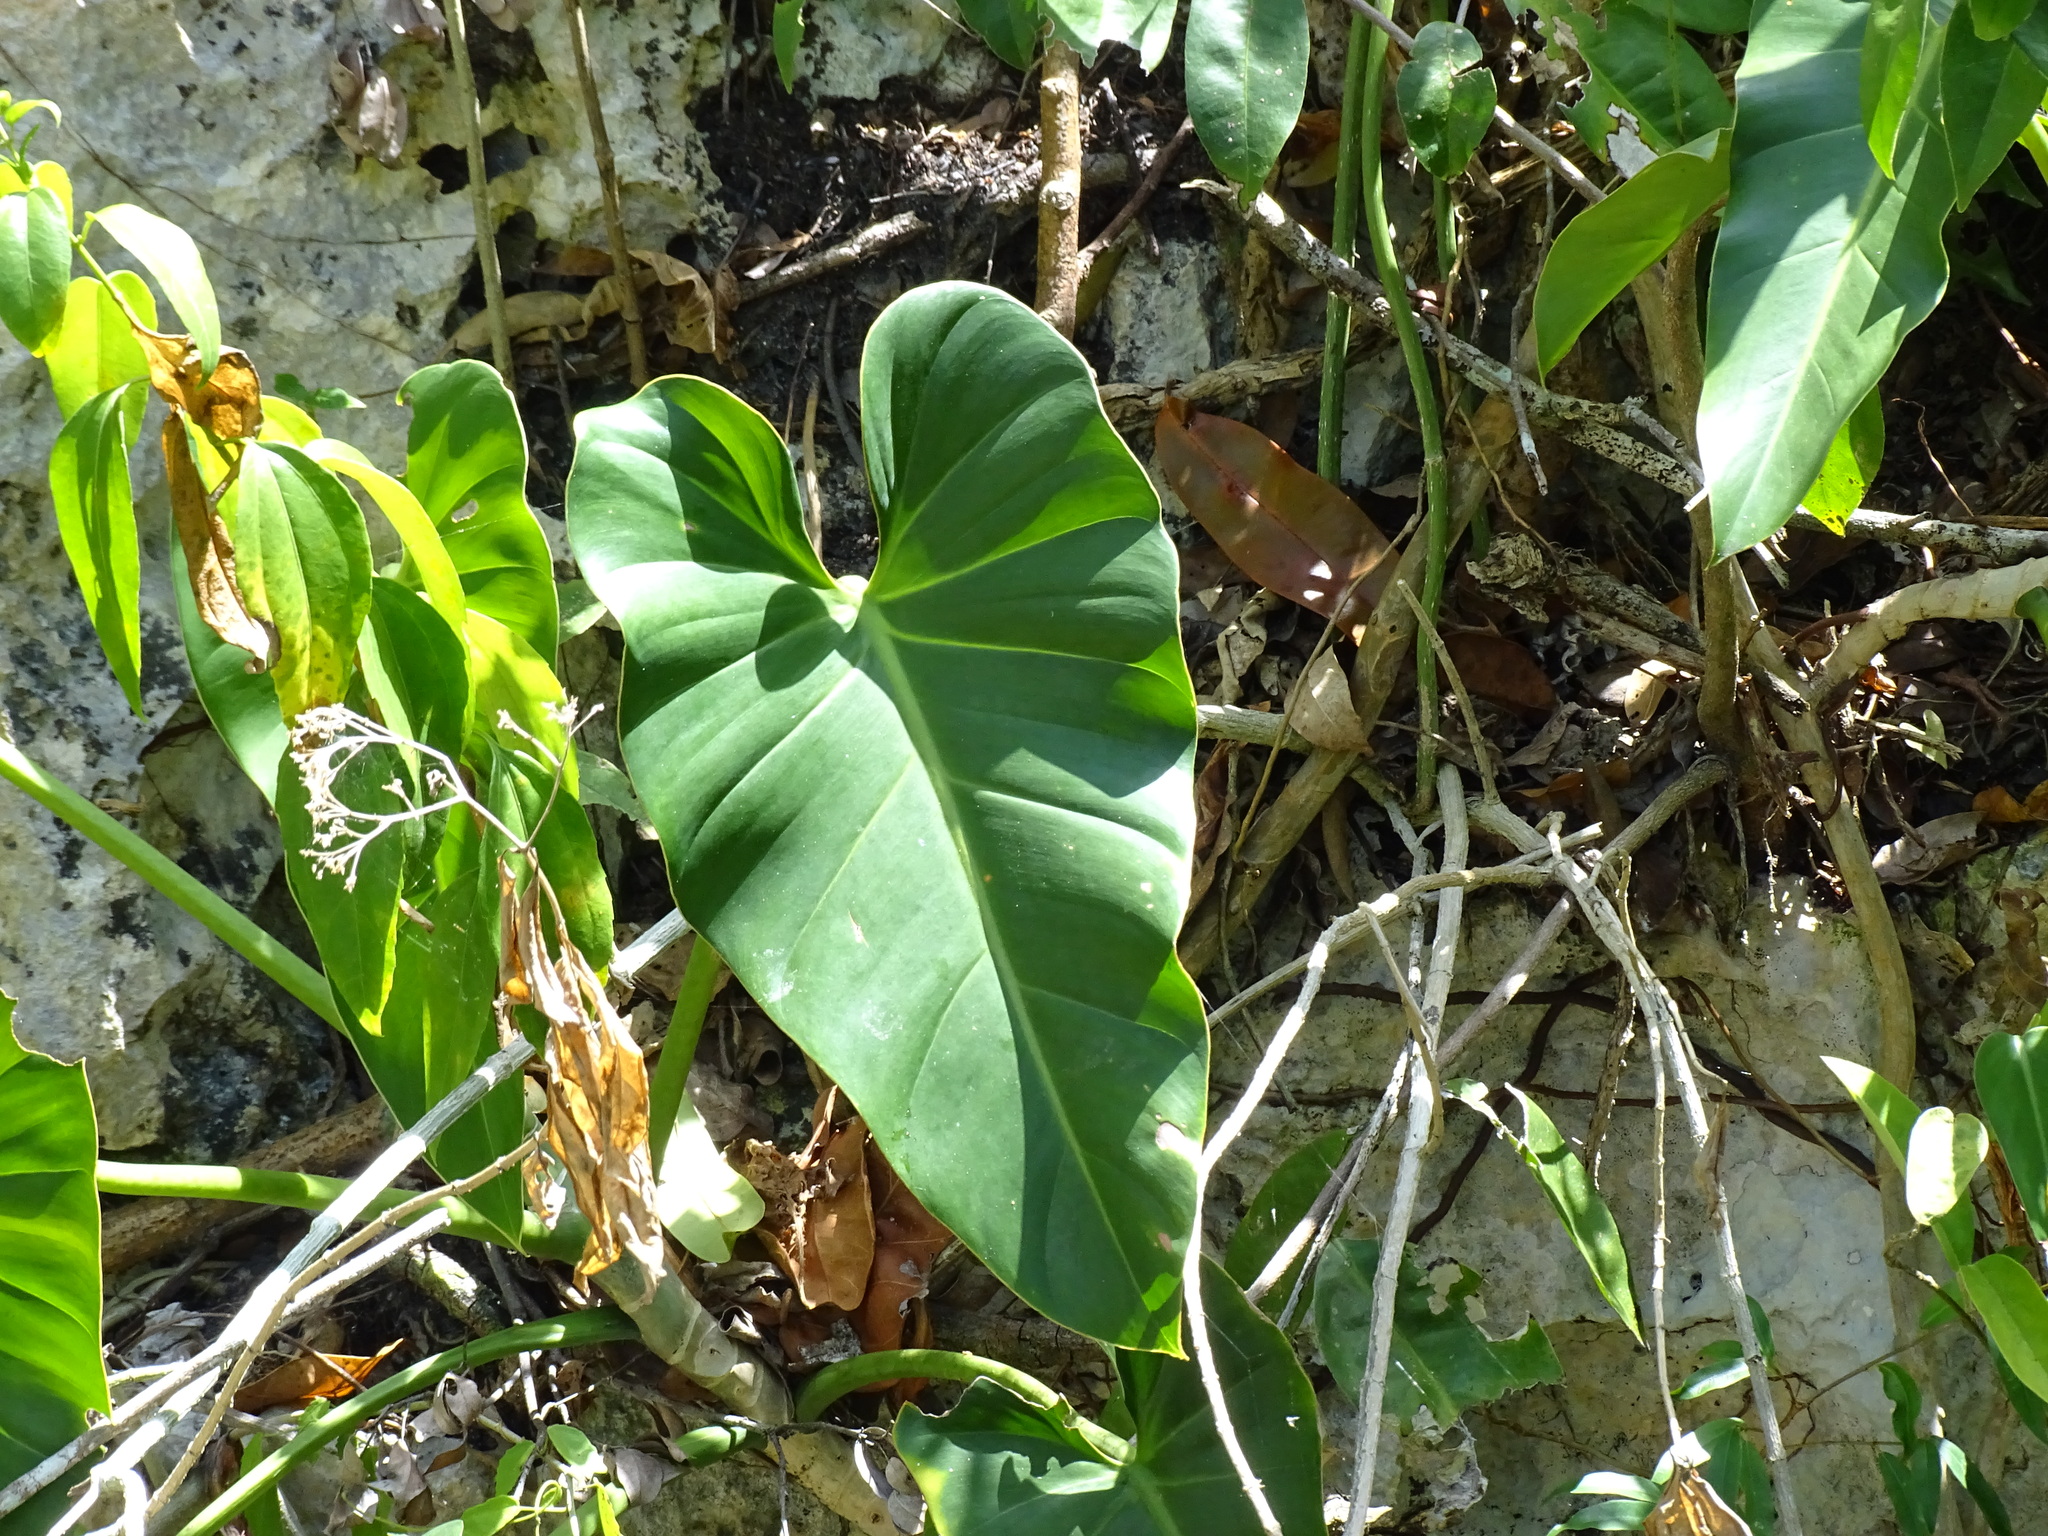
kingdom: Plantae
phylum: Tracheophyta
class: Liliopsida
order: Alismatales
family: Araceae
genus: Philodendron
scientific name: Philodendron smithii
